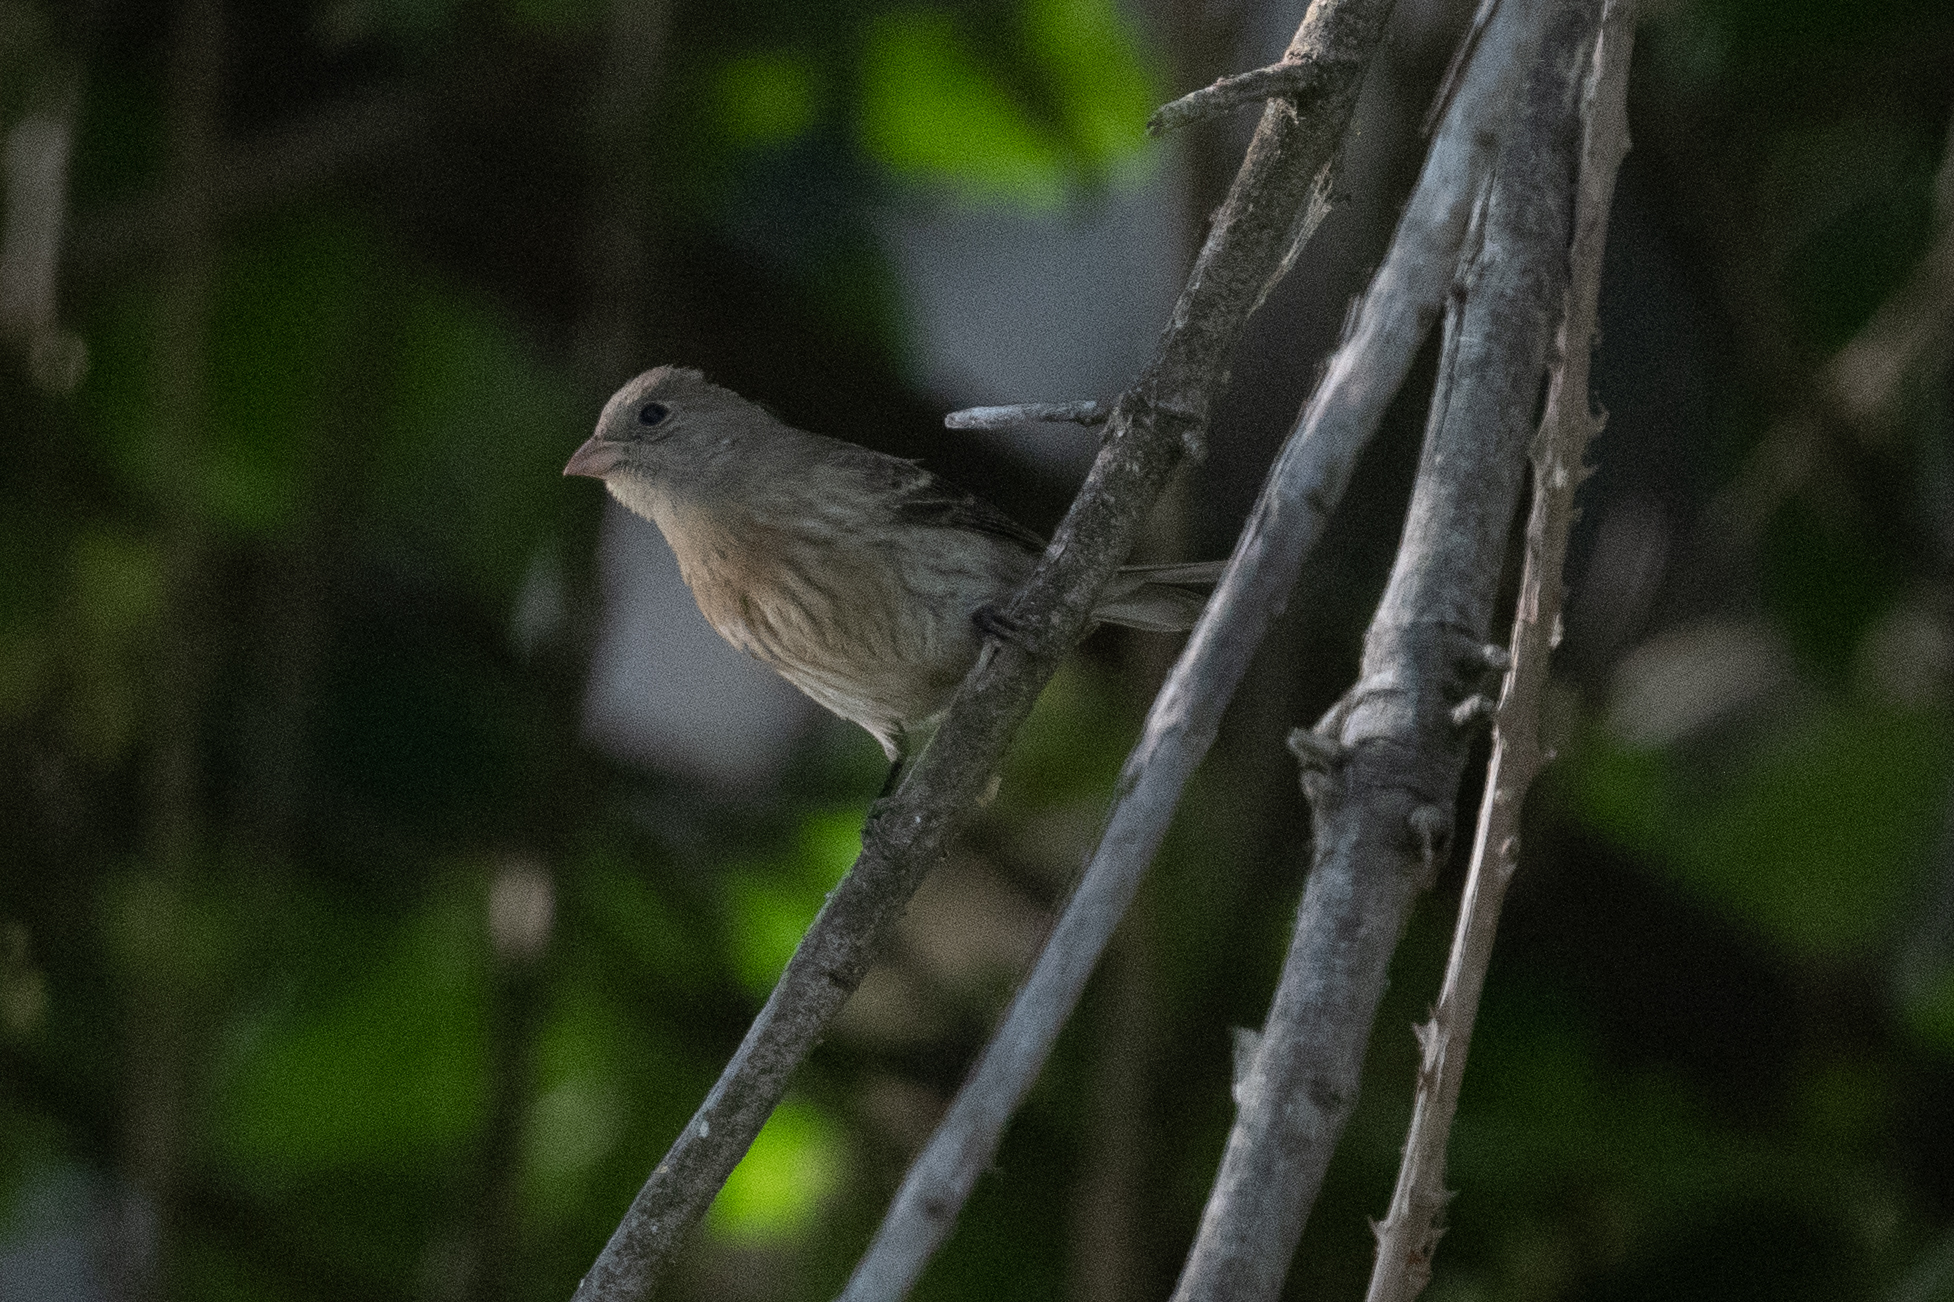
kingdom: Animalia
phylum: Chordata
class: Aves
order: Passeriformes
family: Cardinalidae
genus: Passerina
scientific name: Passerina amoena
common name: Lazuli bunting
